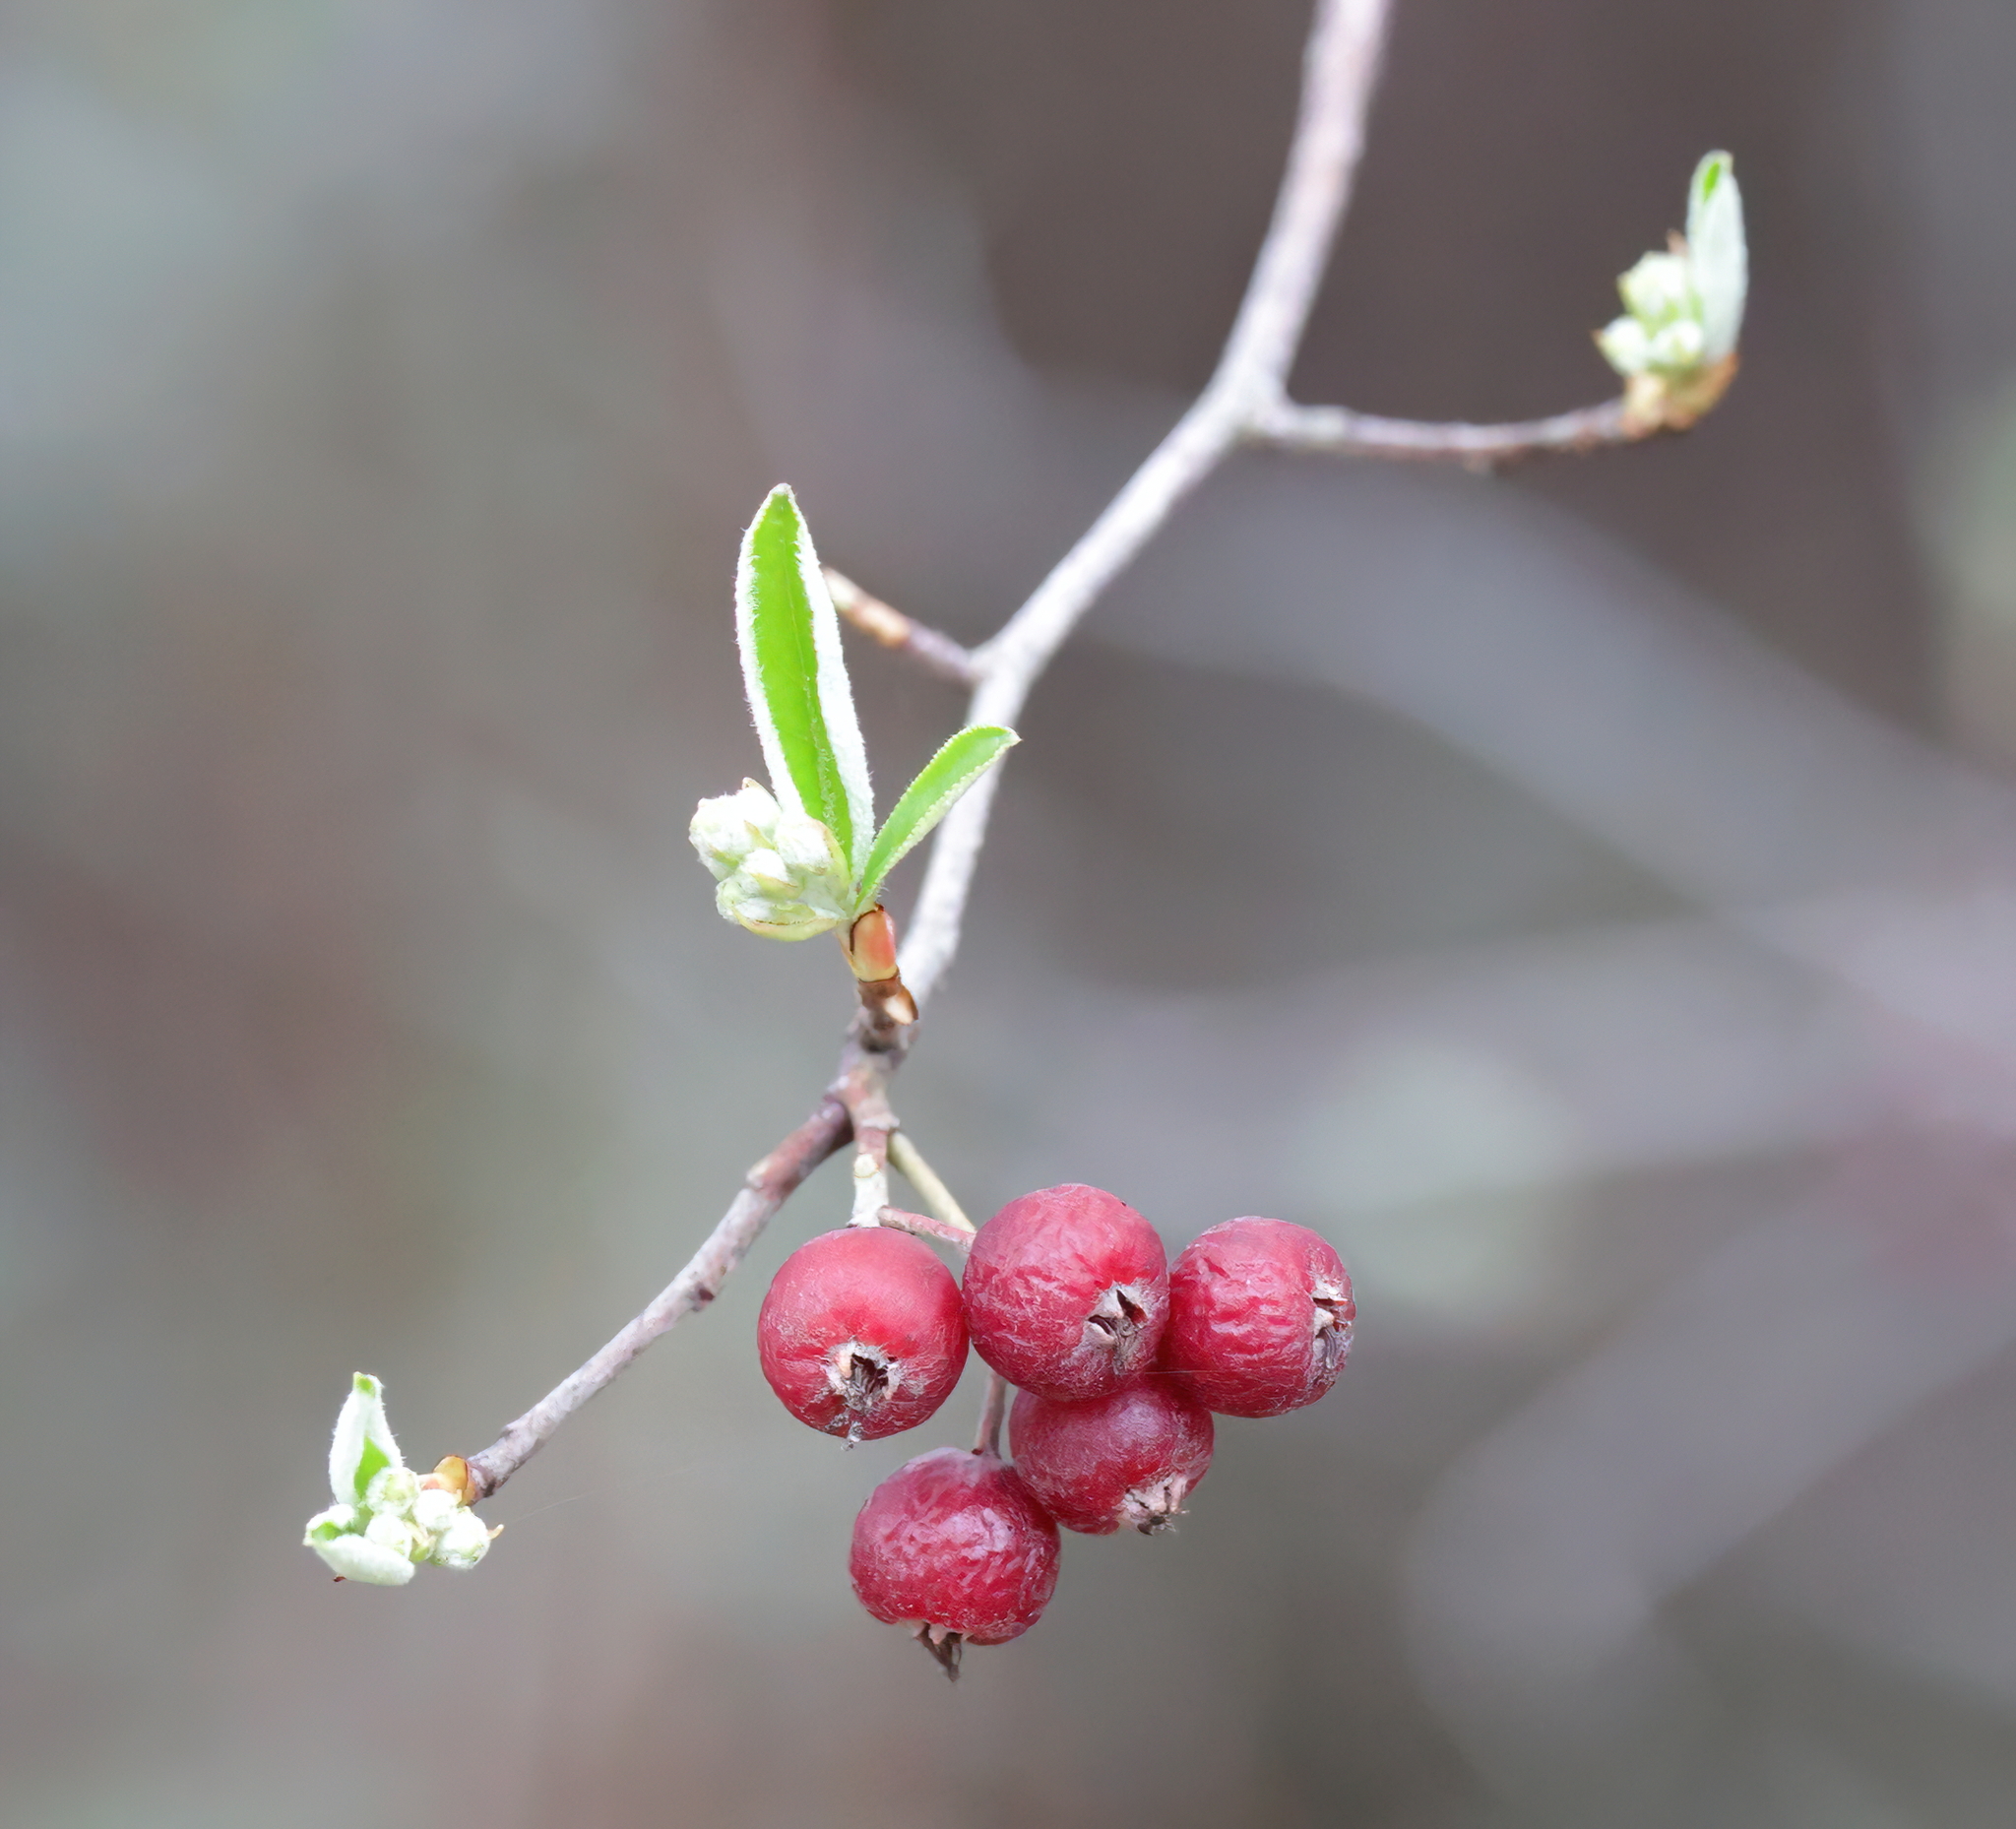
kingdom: Plantae
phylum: Tracheophyta
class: Magnoliopsida
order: Rosales
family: Rosaceae
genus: Aronia
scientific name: Aronia arbutifolia
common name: Red chokeberry
